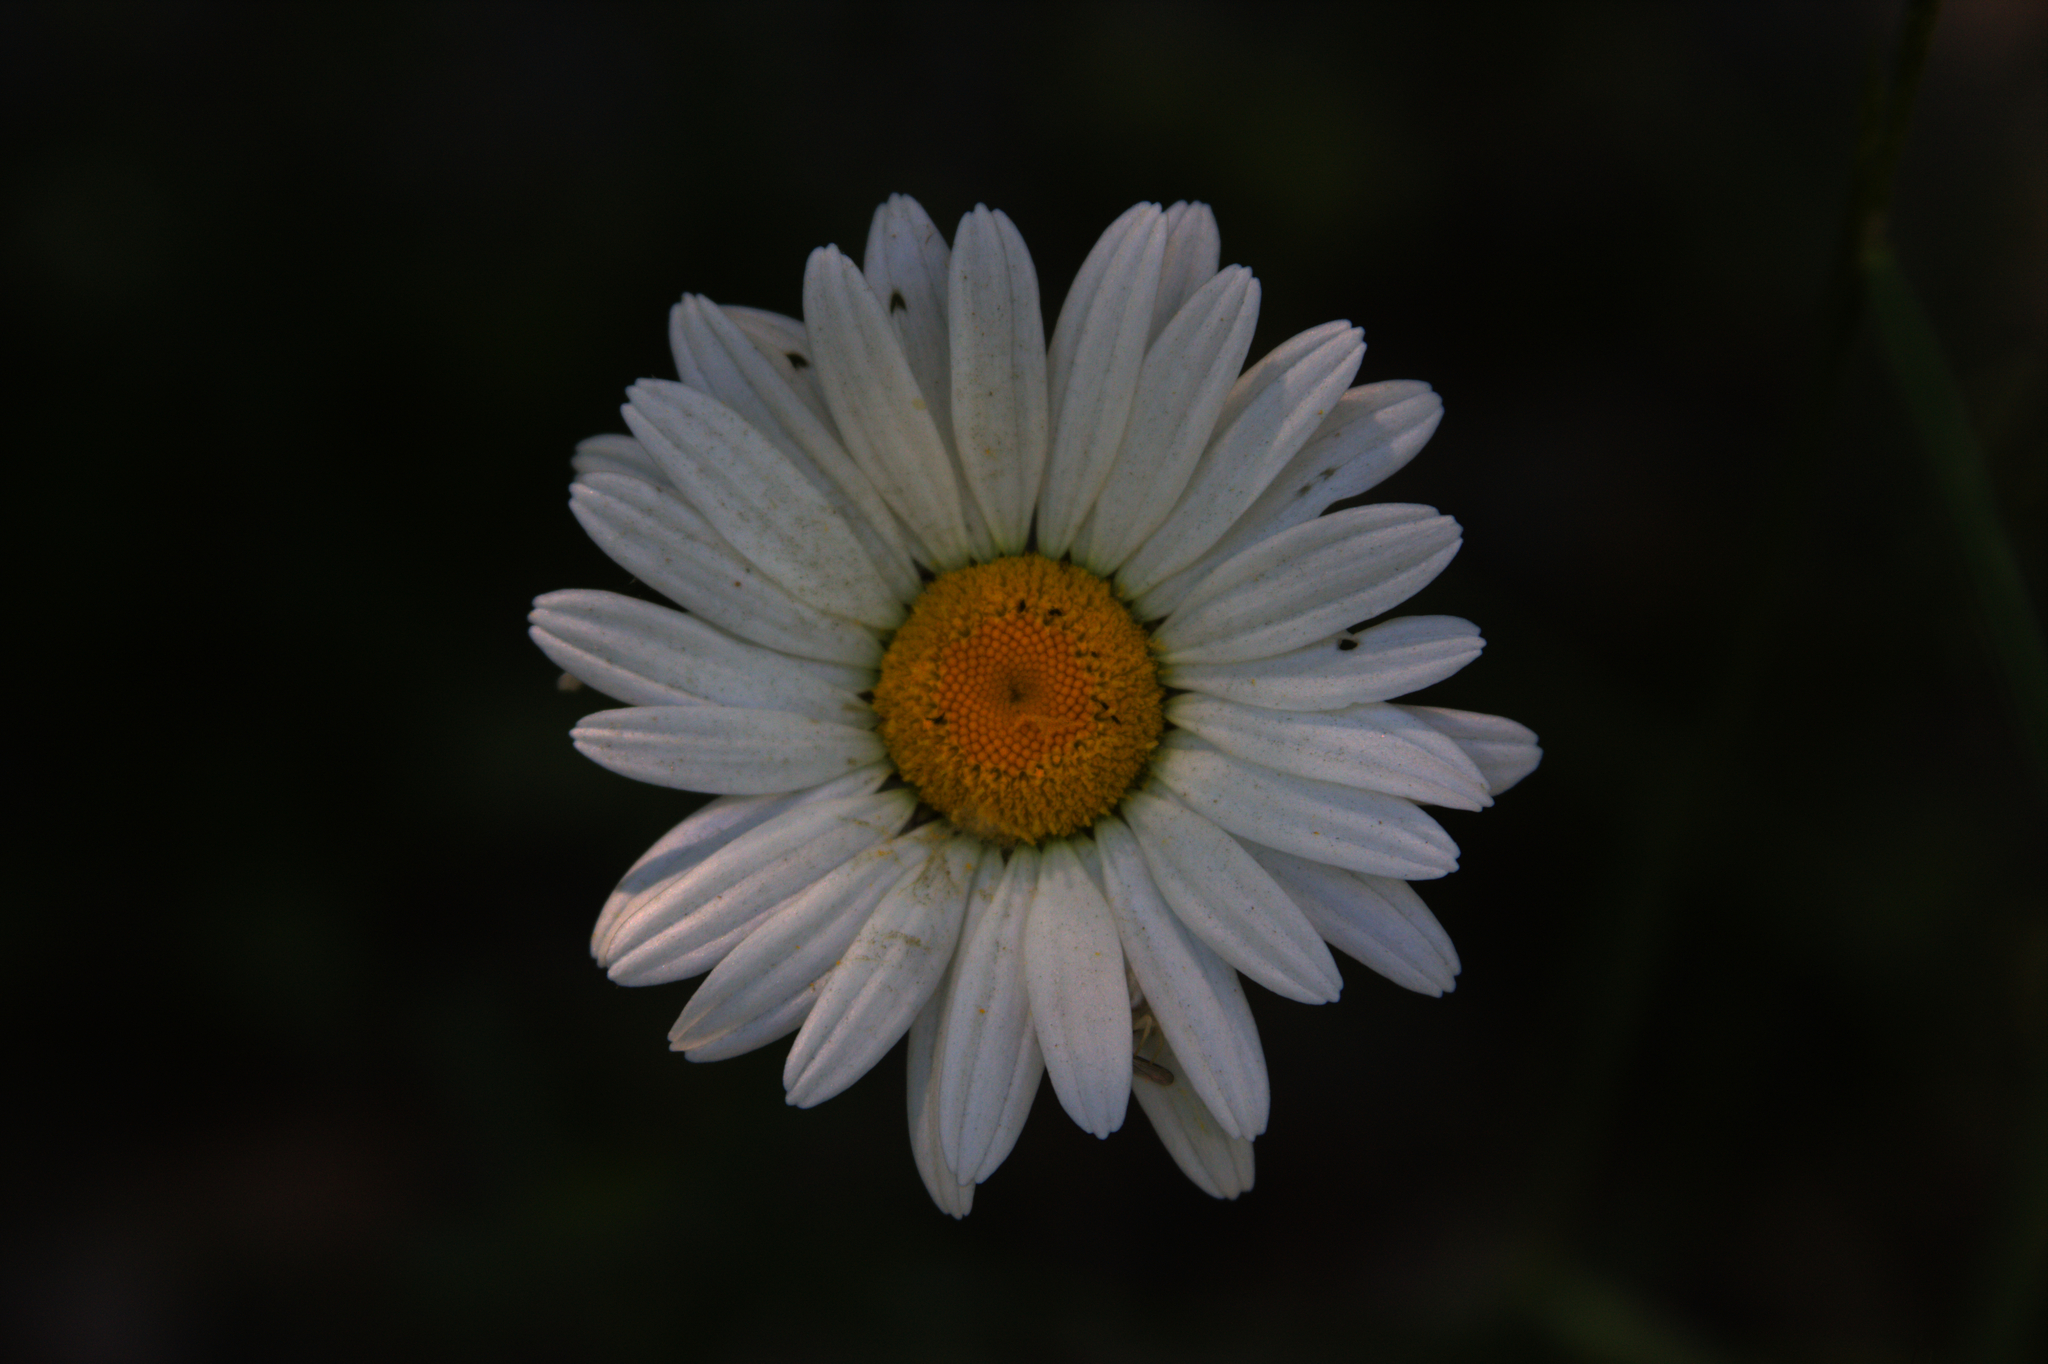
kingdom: Plantae
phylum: Tracheophyta
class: Magnoliopsida
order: Asterales
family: Asteraceae
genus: Leucanthemum
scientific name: Leucanthemum vulgare
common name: Oxeye daisy
